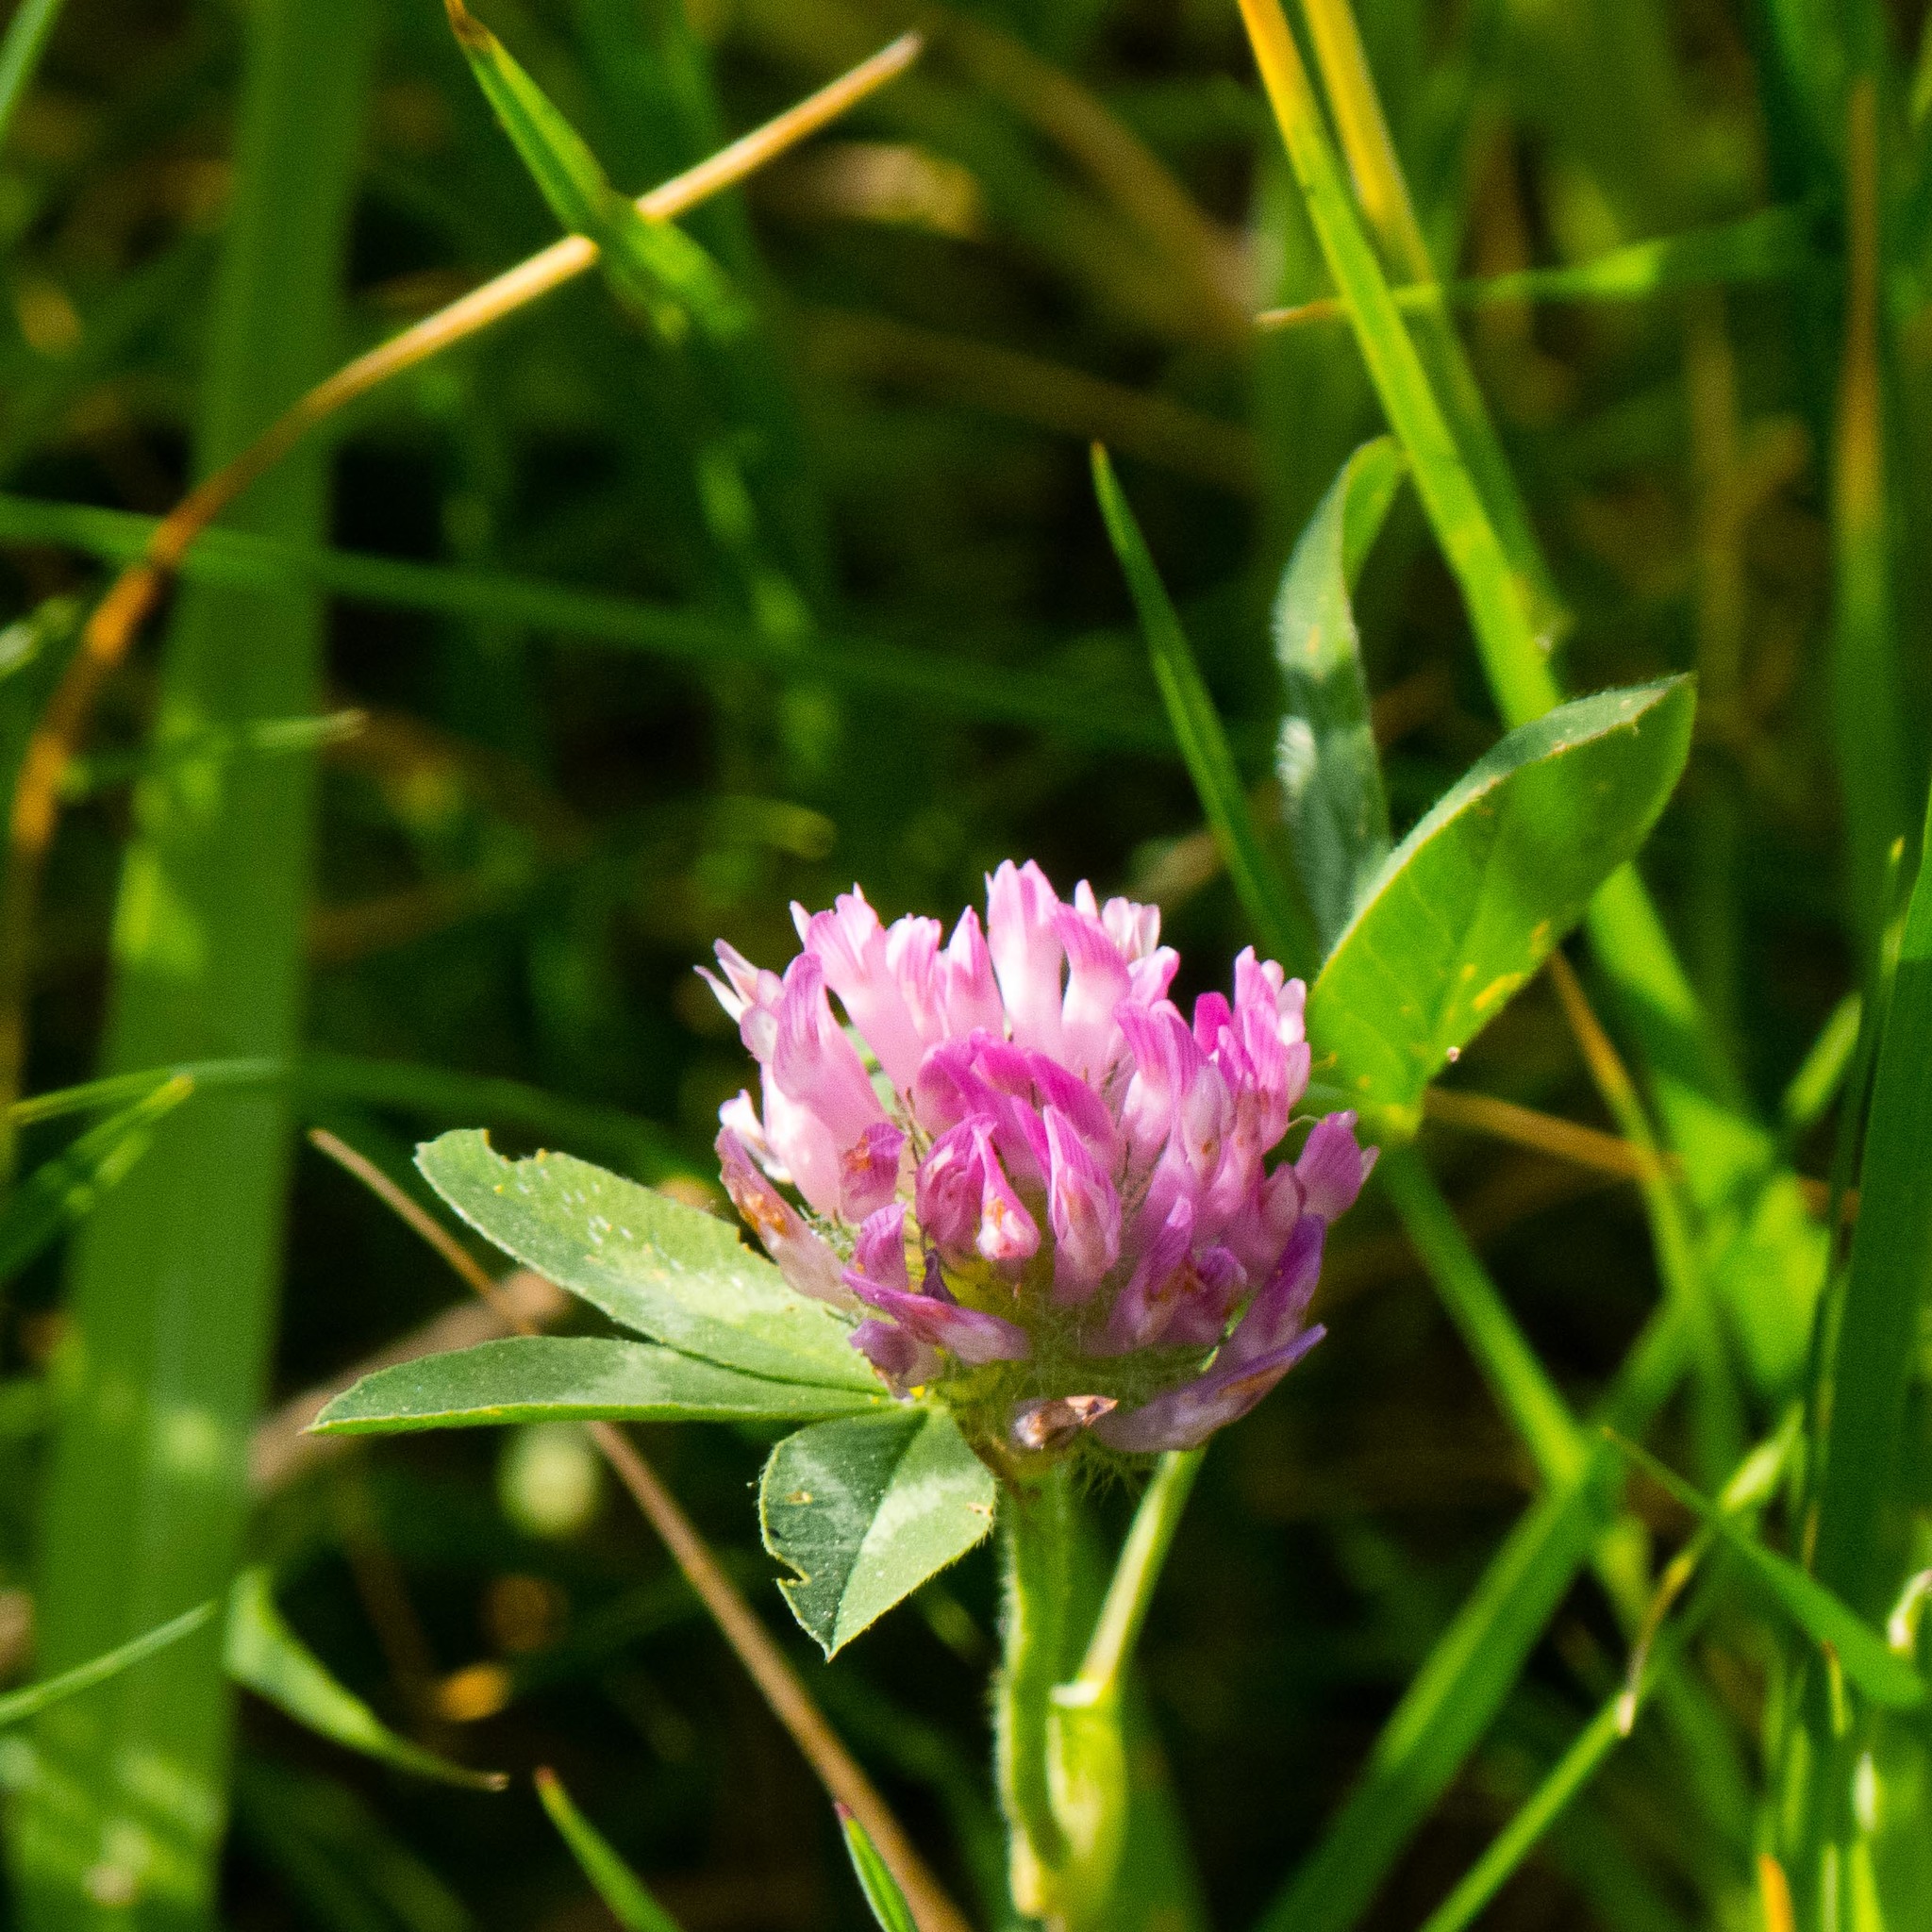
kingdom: Plantae
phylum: Tracheophyta
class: Magnoliopsida
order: Fabales
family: Fabaceae
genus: Trifolium
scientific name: Trifolium pratense
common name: Red clover
